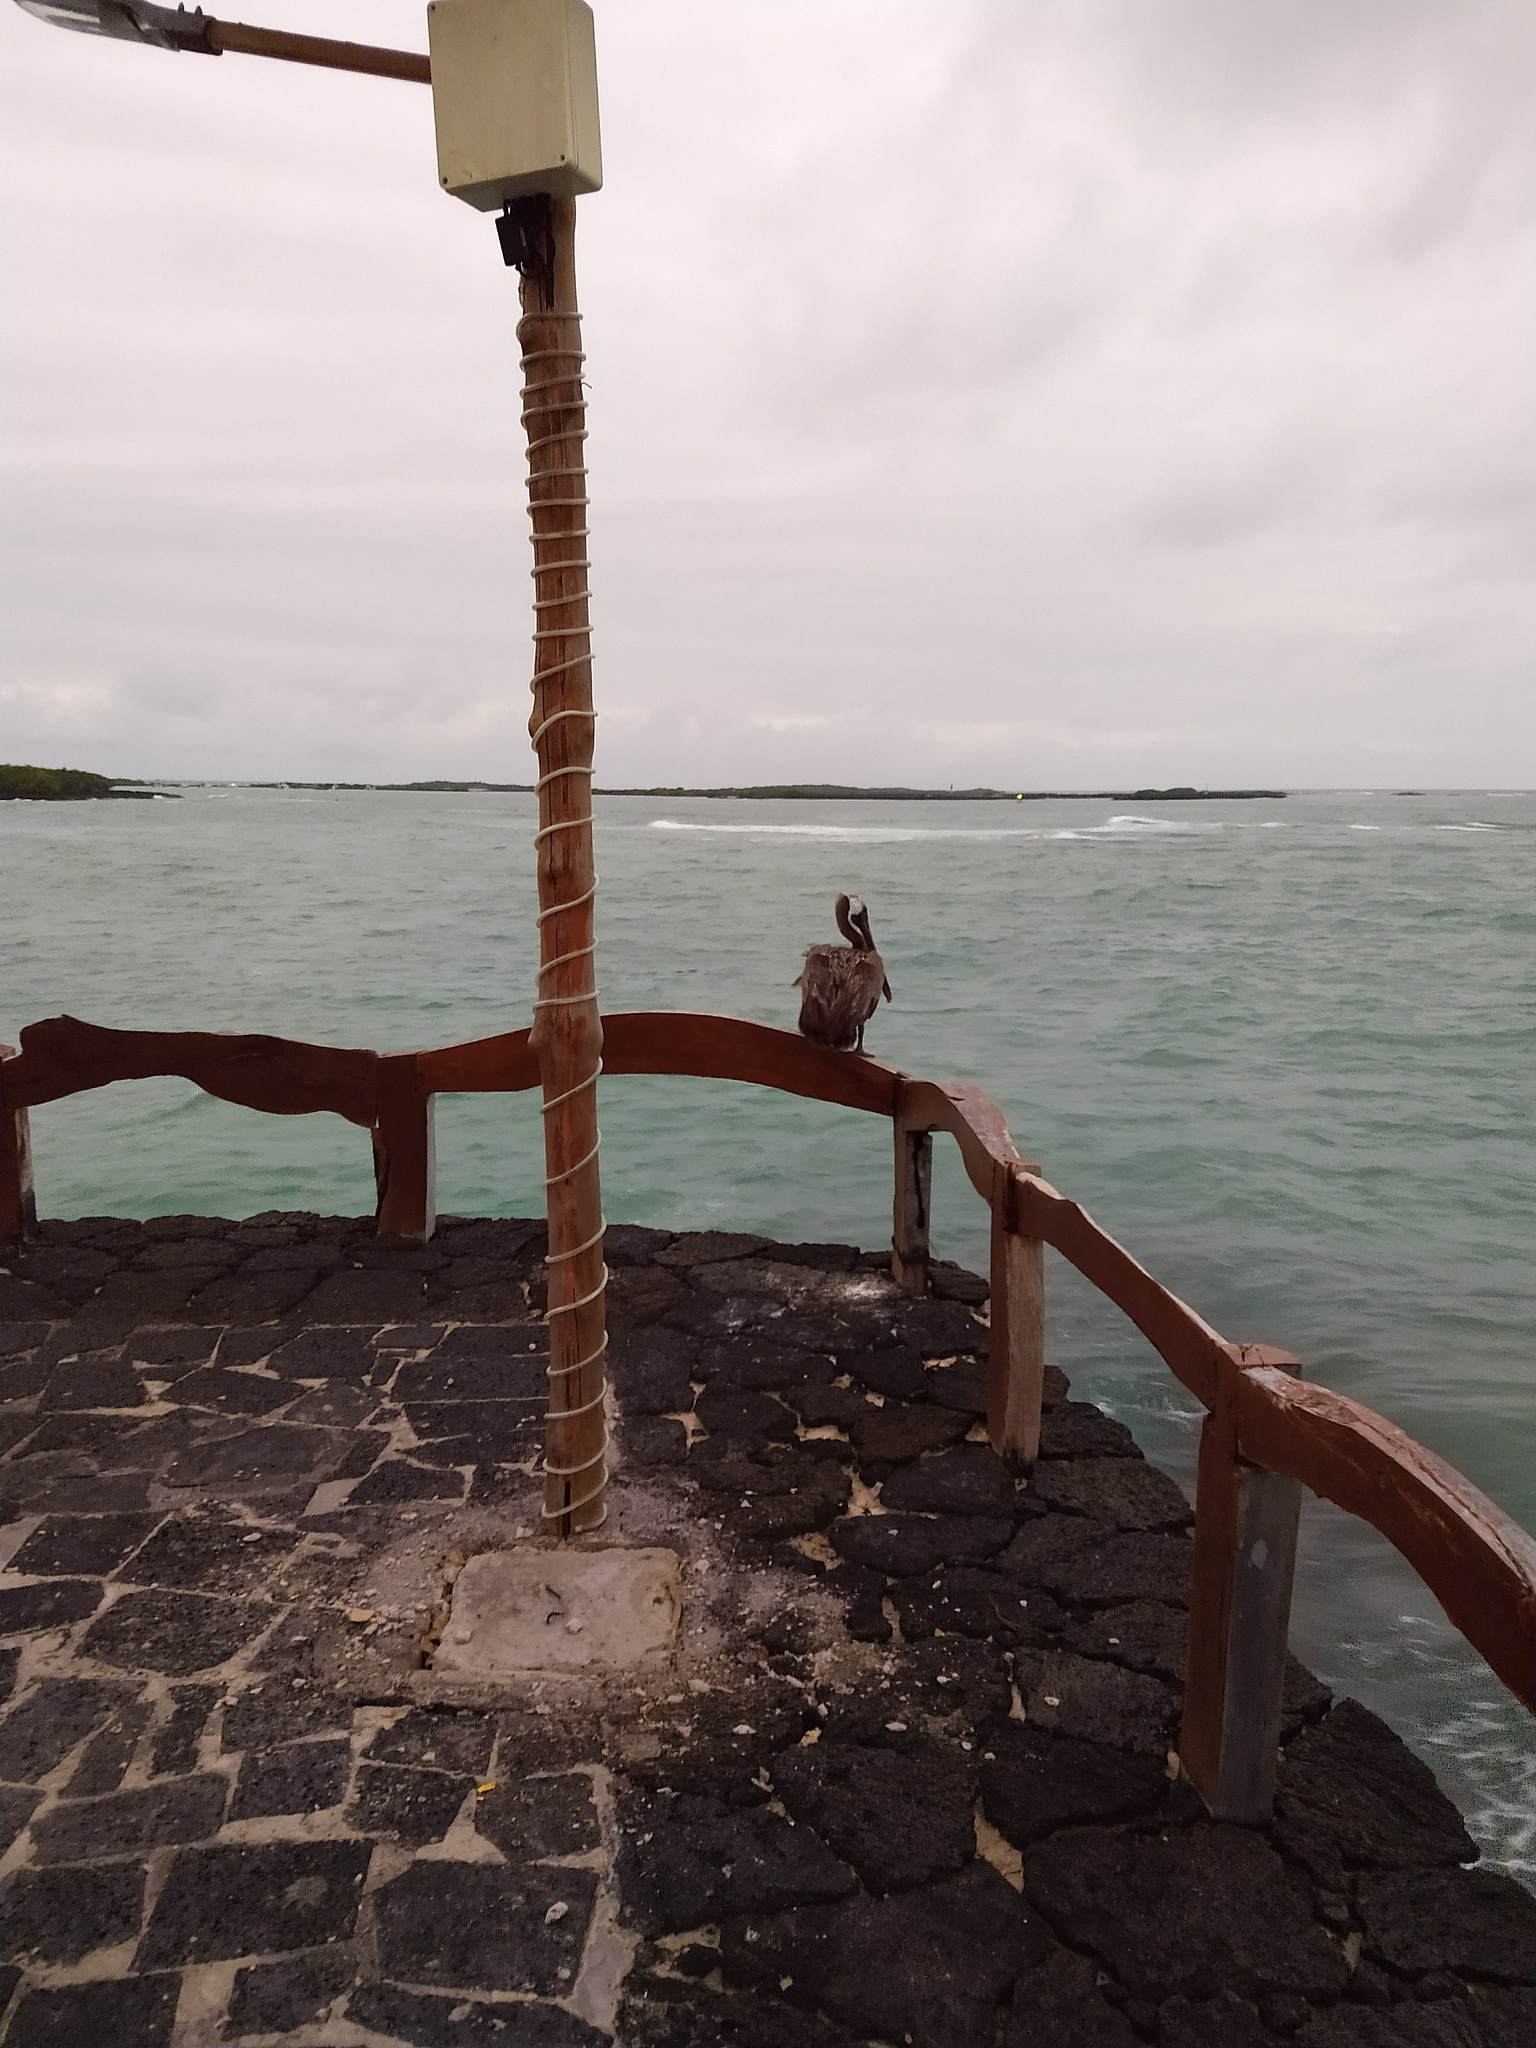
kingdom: Animalia
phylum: Chordata
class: Aves
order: Pelecaniformes
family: Pelecanidae
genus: Pelecanus
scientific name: Pelecanus occidentalis
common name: Brown pelican
